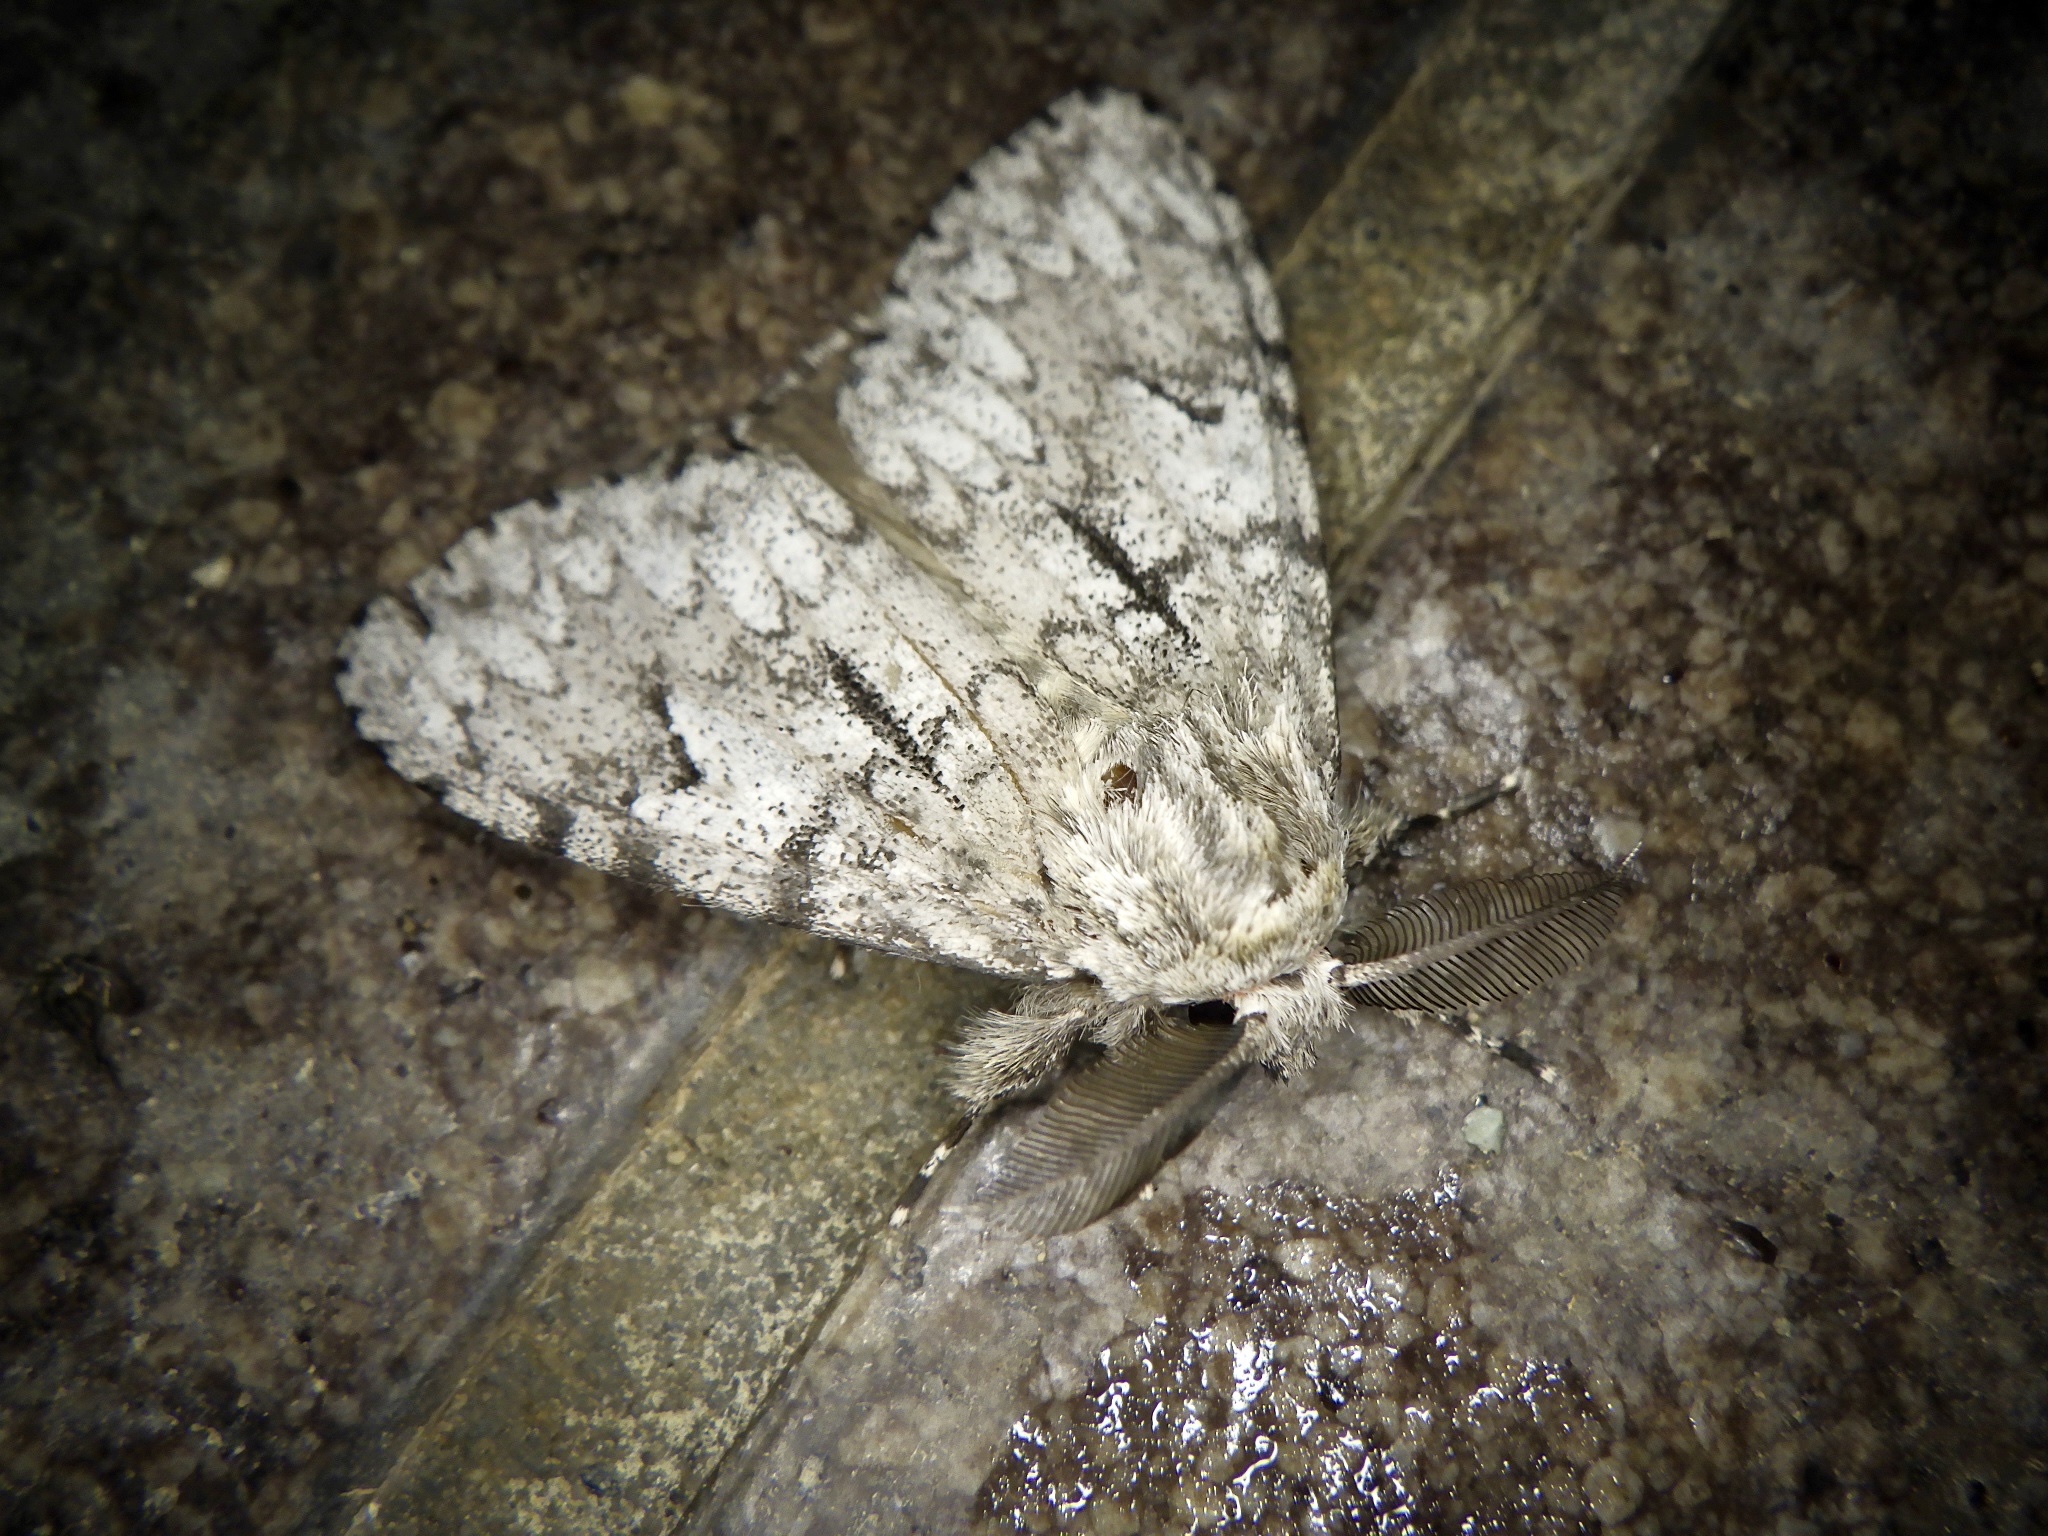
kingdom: Animalia
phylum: Arthropoda
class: Insecta
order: Lepidoptera
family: Erebidae
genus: Lymantria
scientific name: Lymantria fumida
